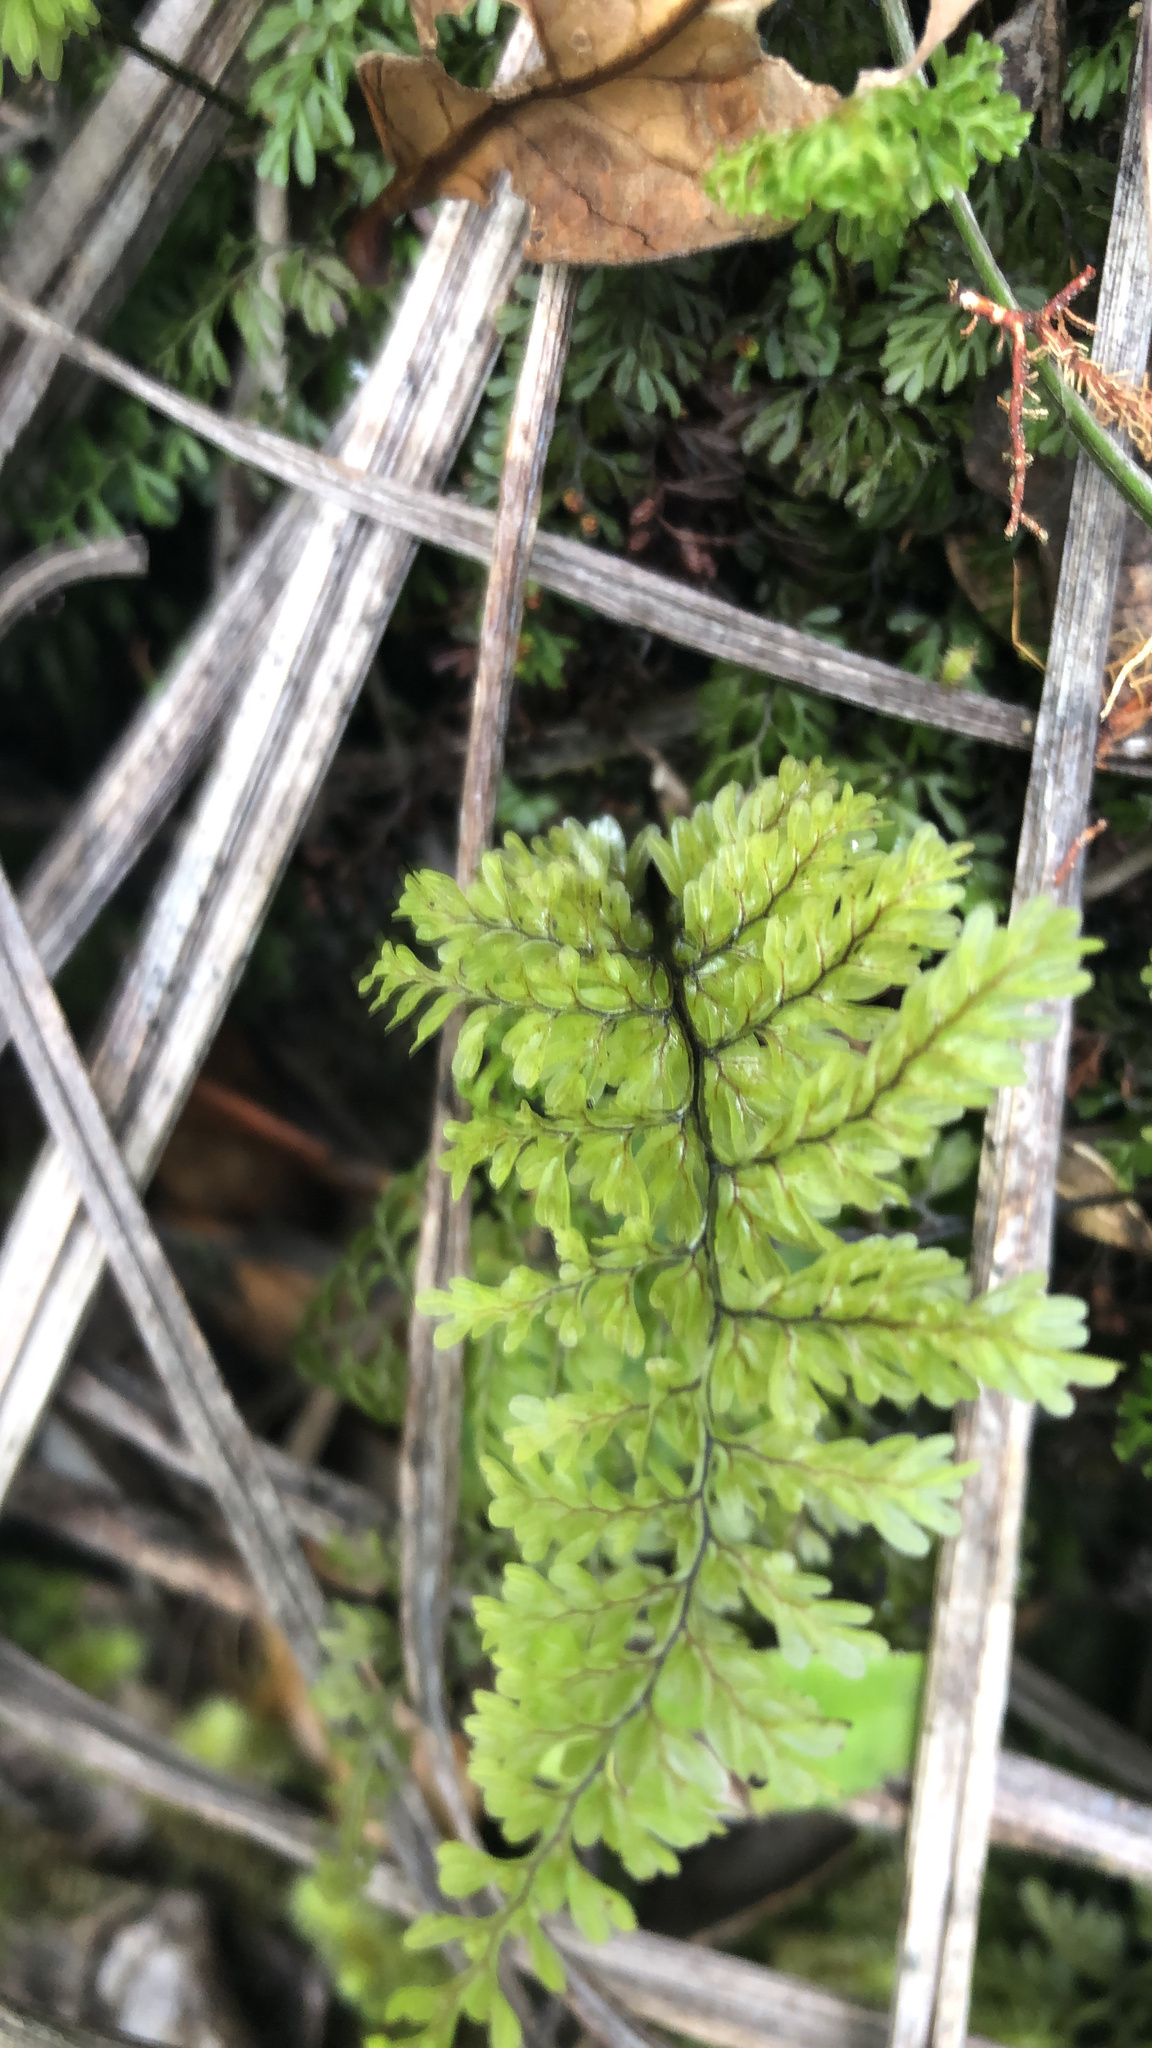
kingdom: Plantae
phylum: Tracheophyta
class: Polypodiopsida
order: Hymenophyllales
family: Hymenophyllaceae
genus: Hymenophyllum
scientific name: Hymenophyllum sanguinolentum
